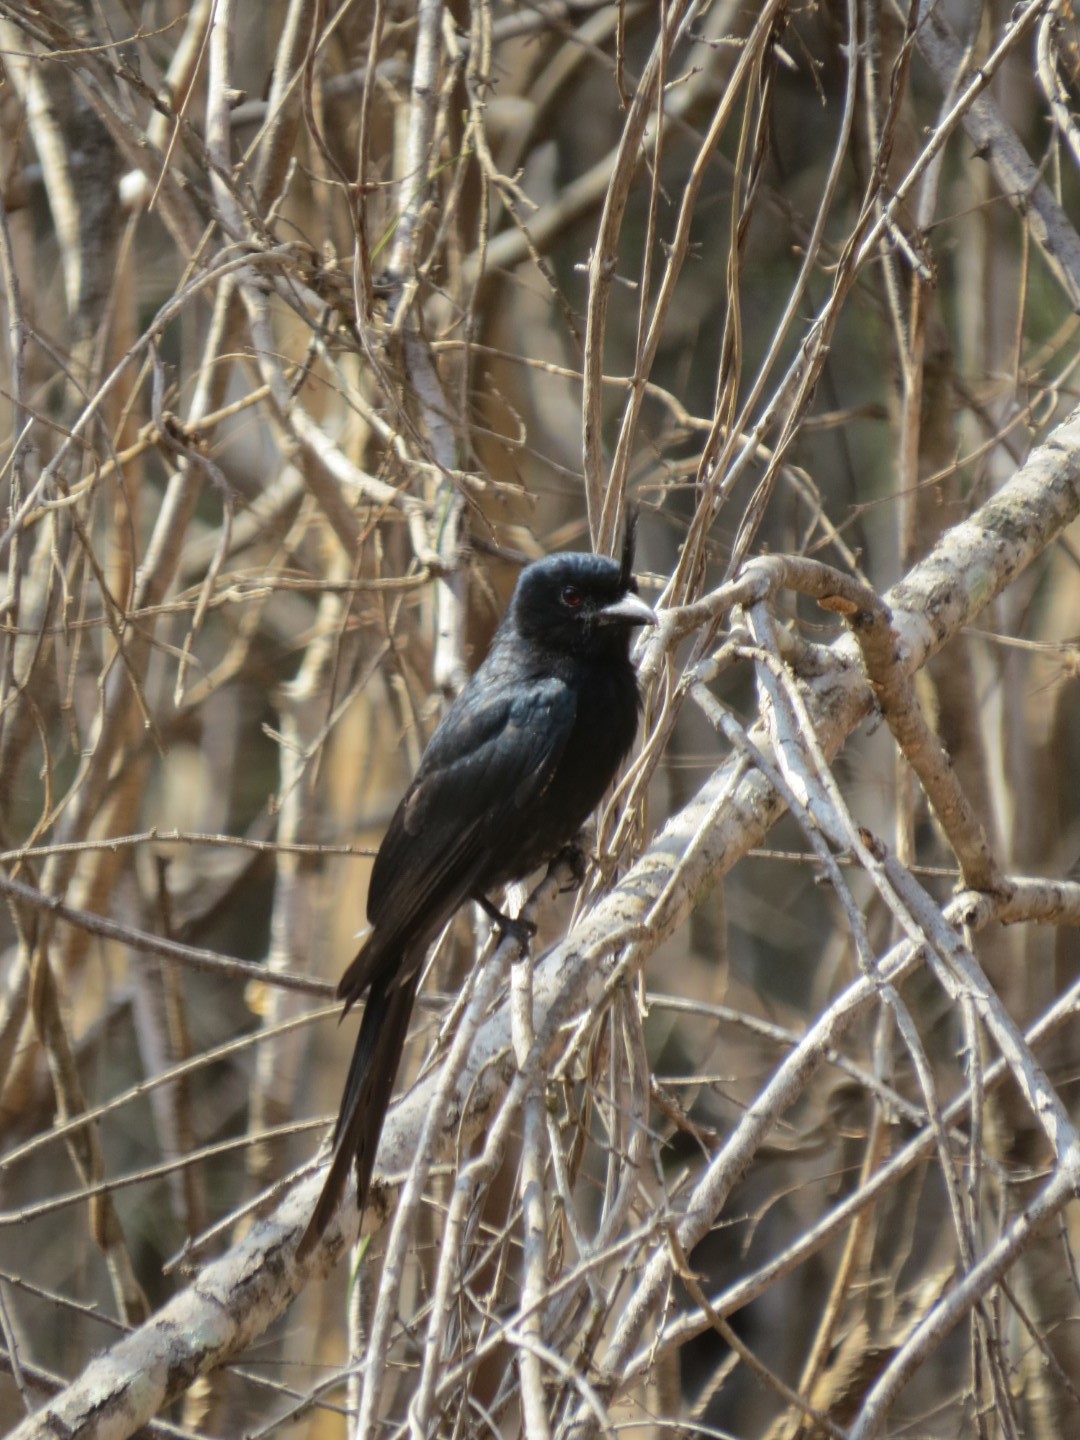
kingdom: Animalia
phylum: Chordata
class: Aves
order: Passeriformes
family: Dicruridae
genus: Dicrurus
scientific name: Dicrurus forficatus
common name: Crested drongo
